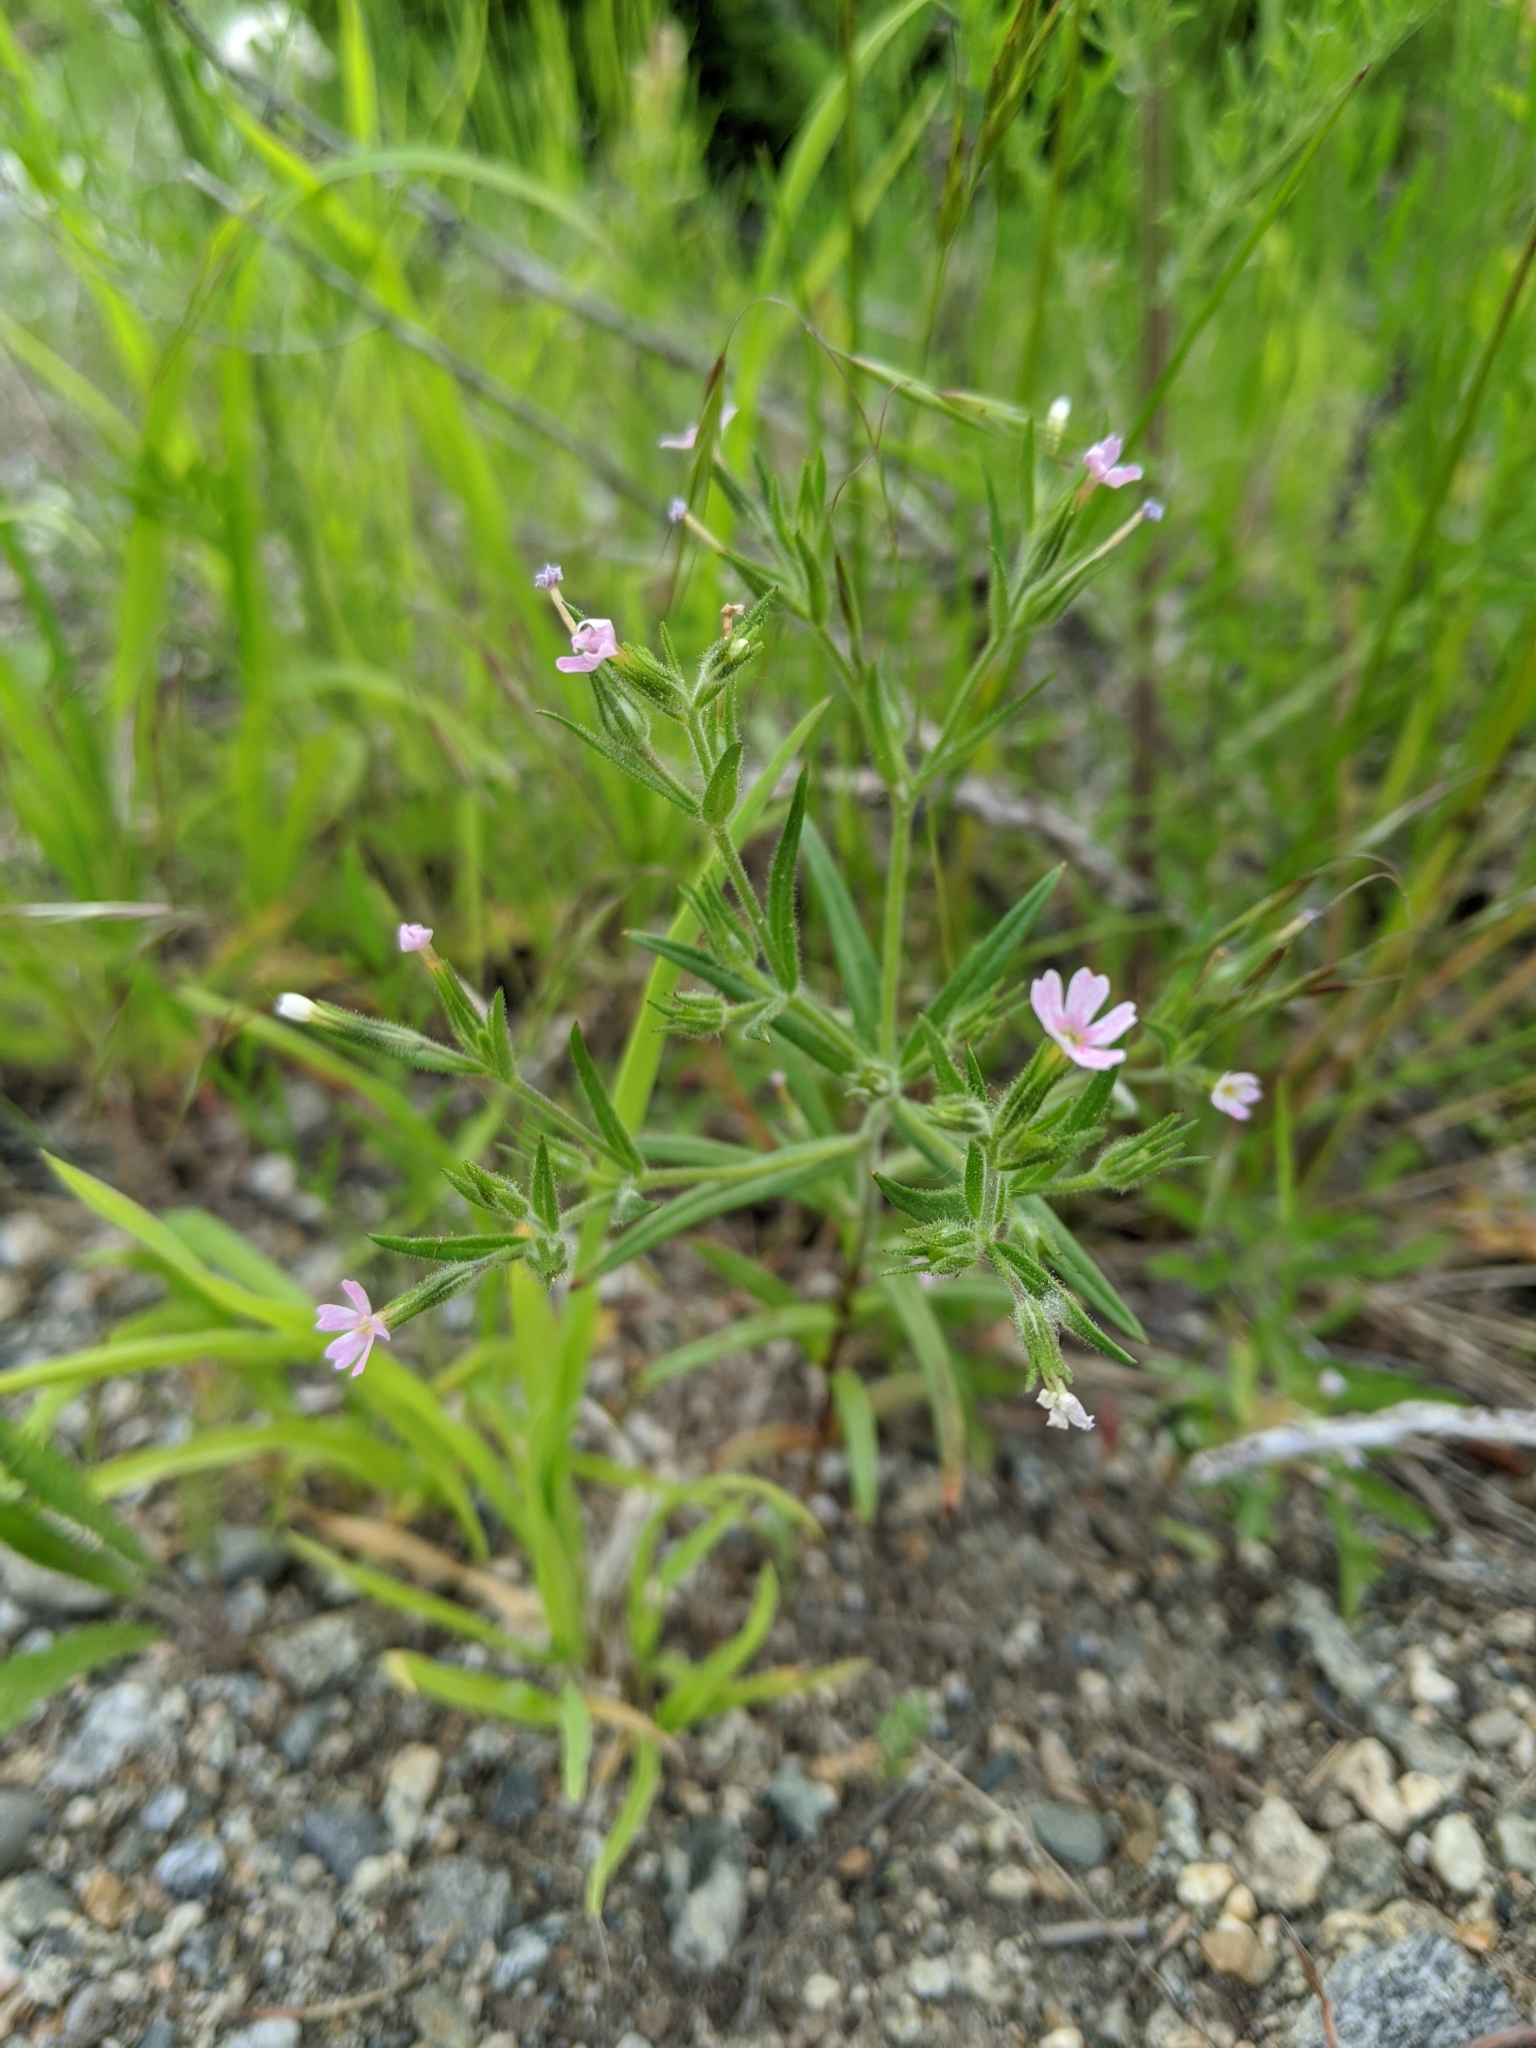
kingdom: Plantae
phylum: Tracheophyta
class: Magnoliopsida
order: Ericales
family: Polemoniaceae
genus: Phlox
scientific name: Phlox gracilis
